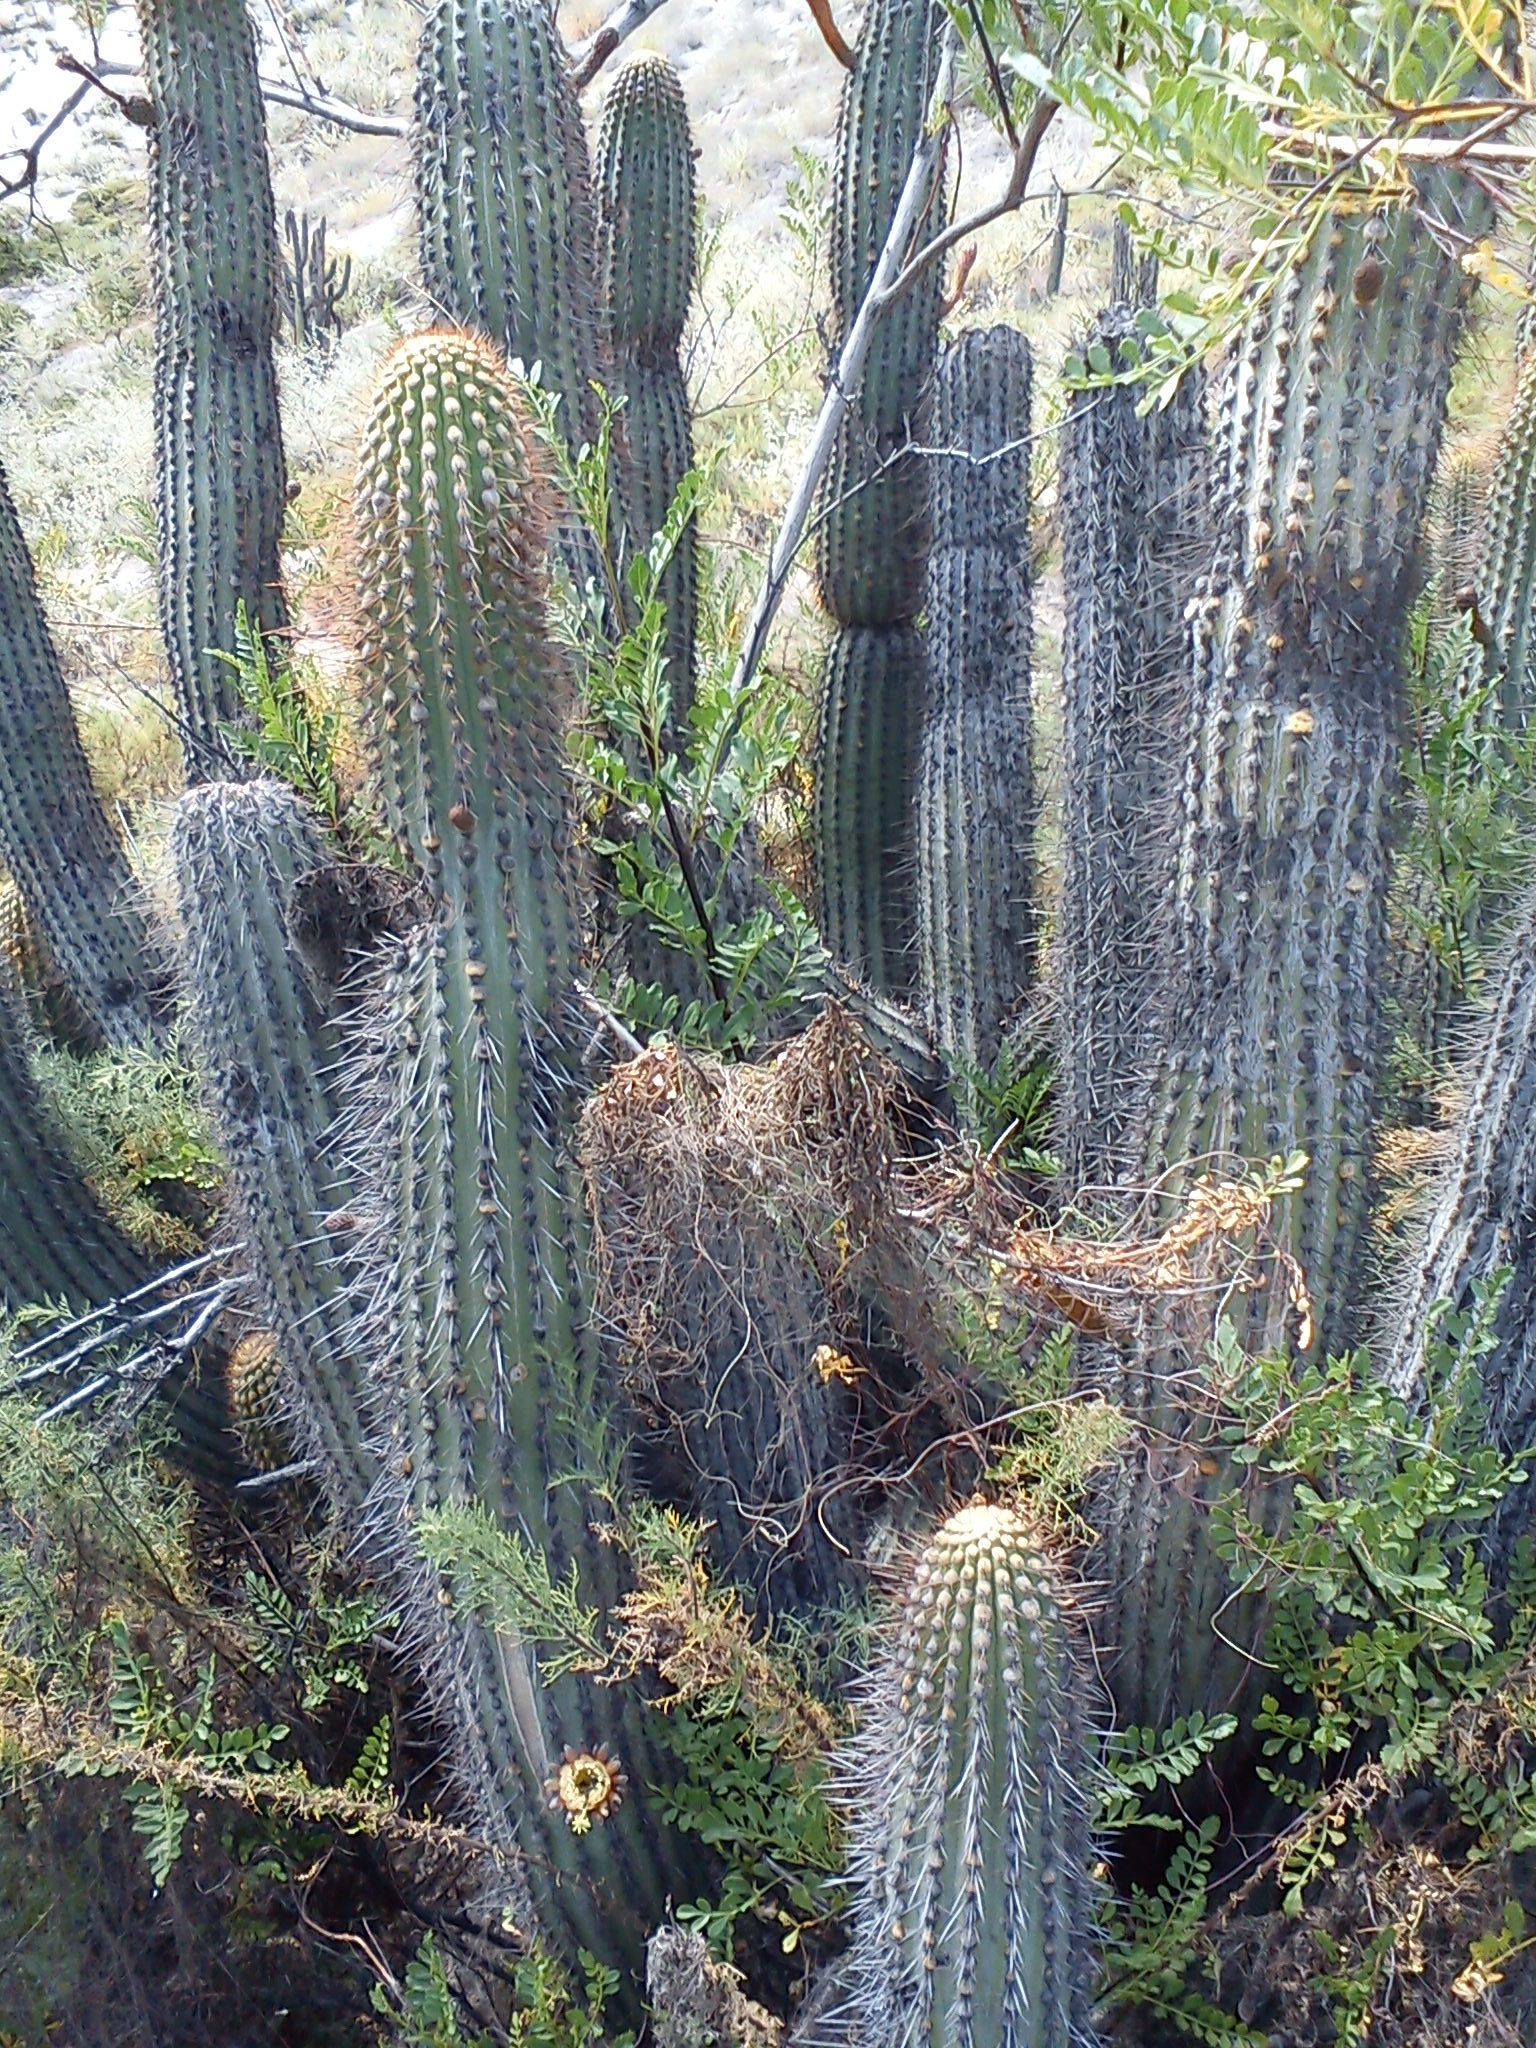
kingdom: Plantae
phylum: Tracheophyta
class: Magnoliopsida
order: Caryophyllales
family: Cactaceae
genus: Weberbauerocereus
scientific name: Weberbauerocereus weberbaueri
